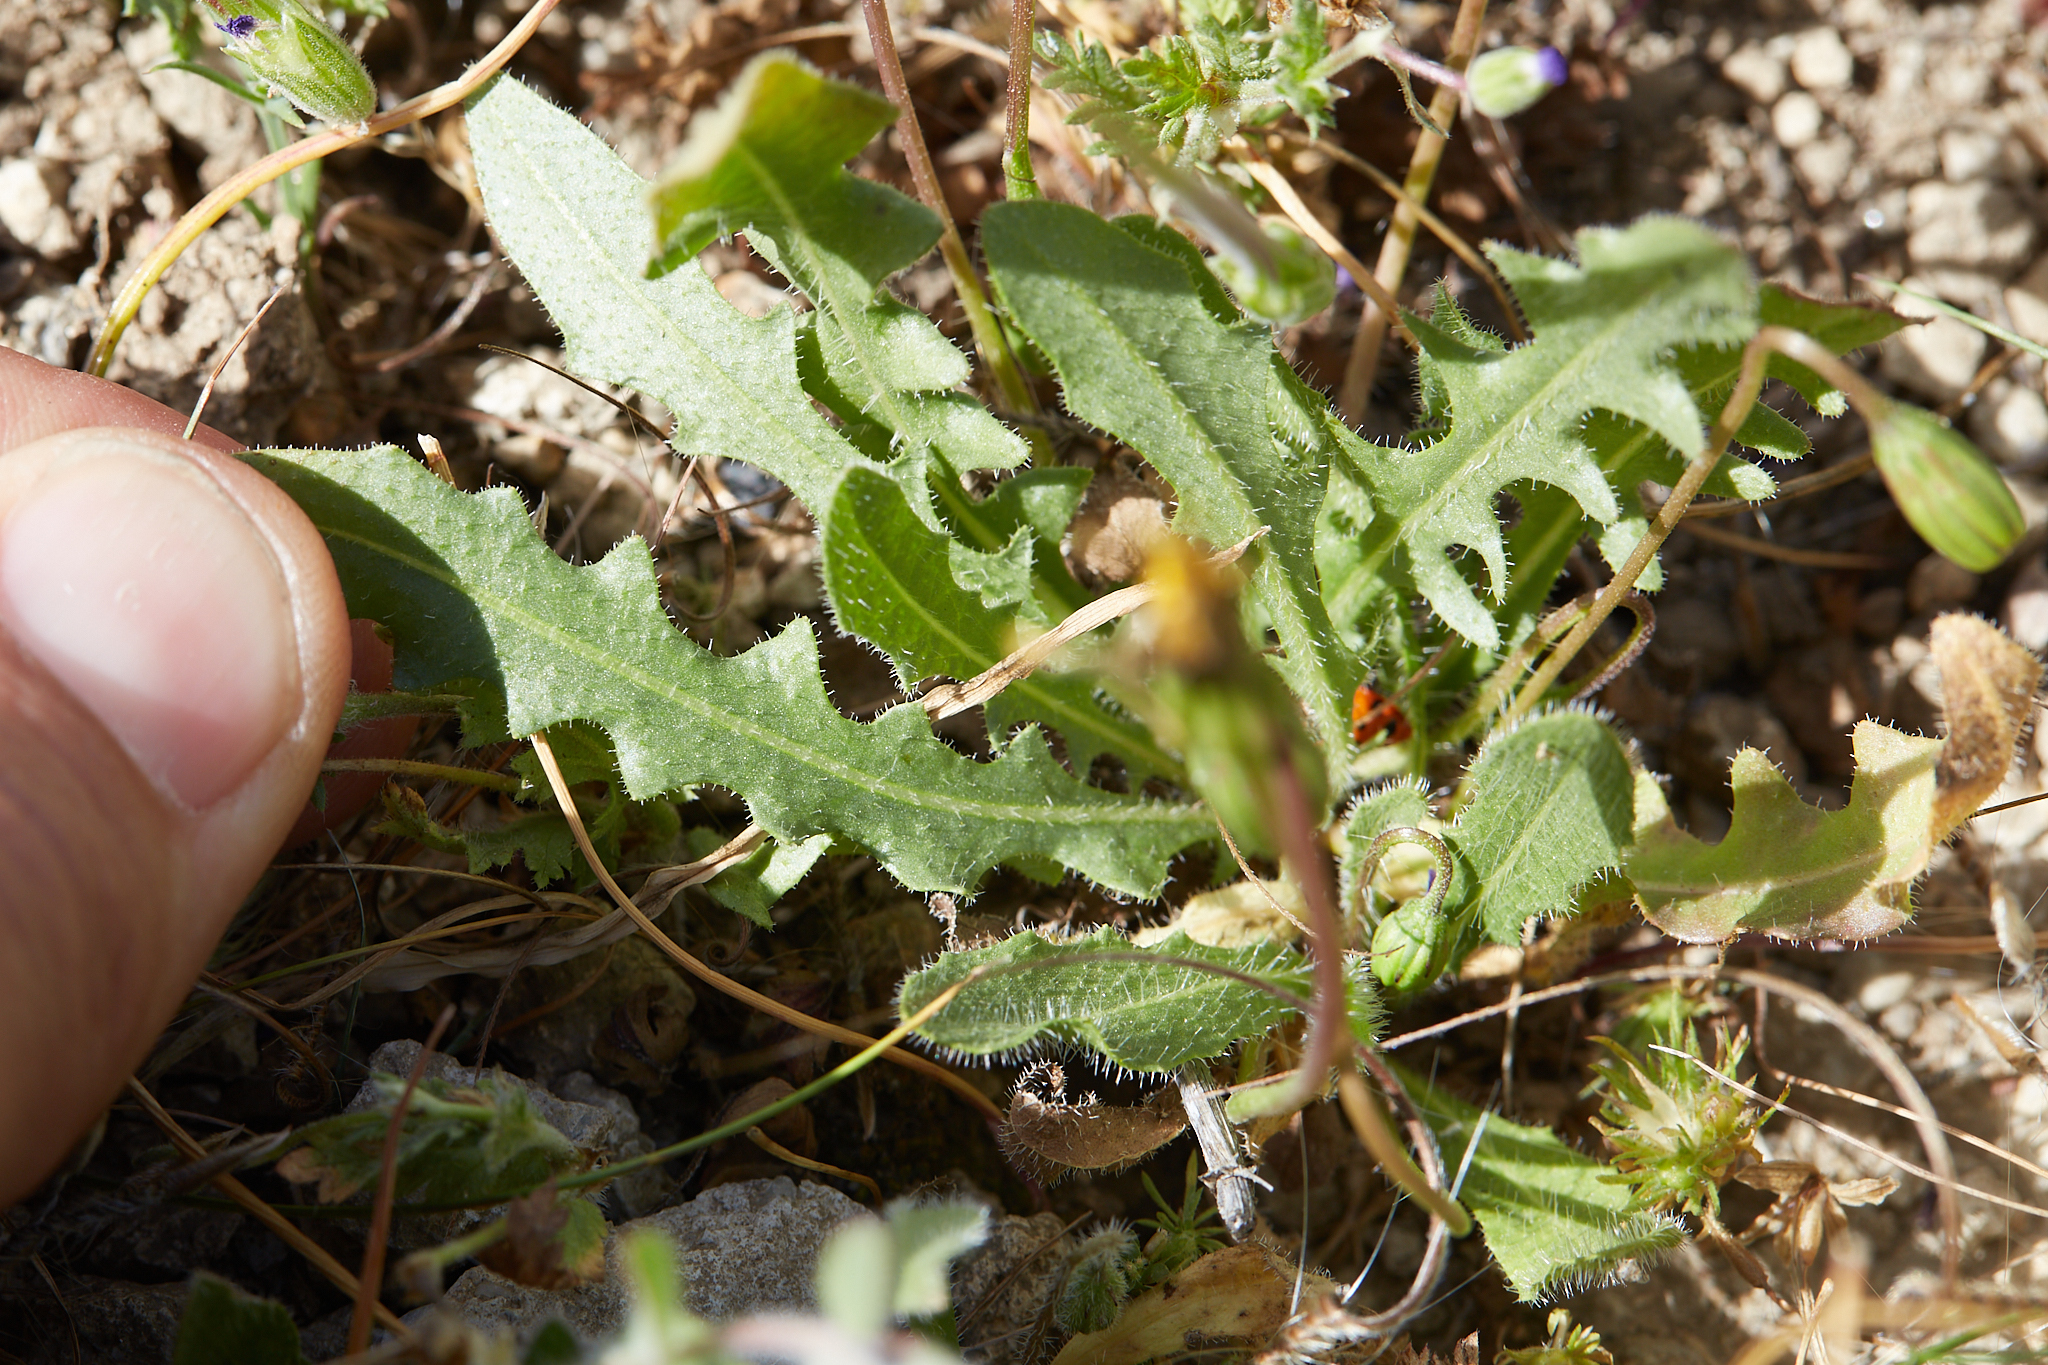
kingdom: Plantae
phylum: Tracheophyta
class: Magnoliopsida
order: Asterales
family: Asteraceae
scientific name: Asteraceae
